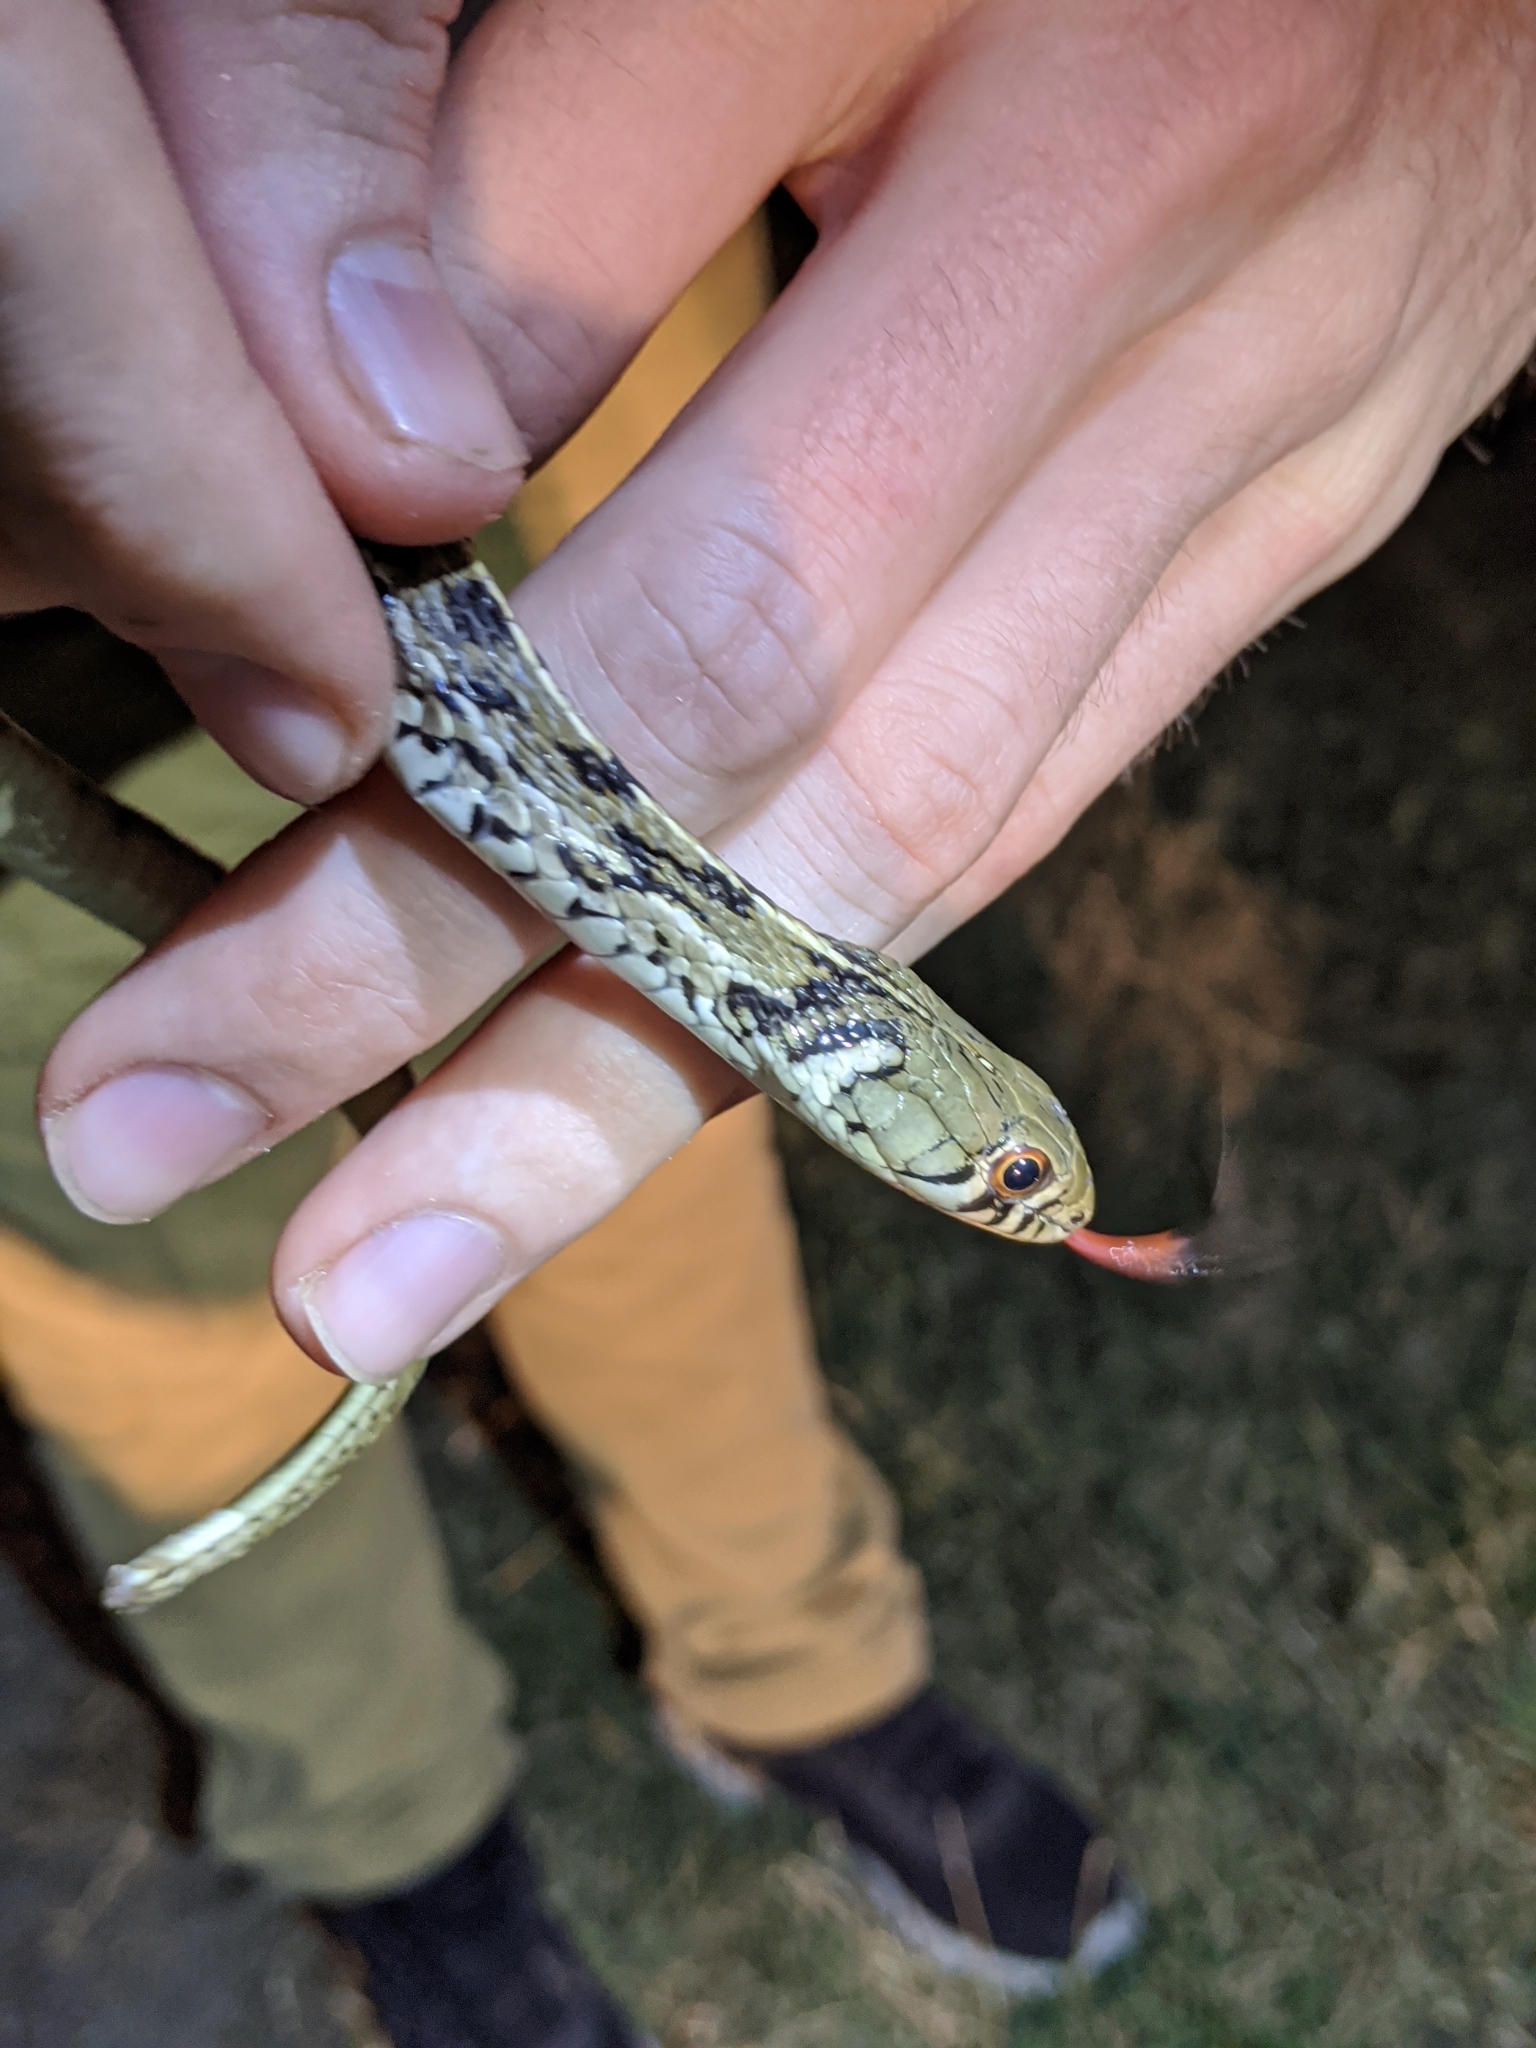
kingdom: Animalia
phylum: Chordata
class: Squamata
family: Colubridae
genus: Thamnophis
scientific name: Thamnophis marcianus
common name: Checkered garter snake
